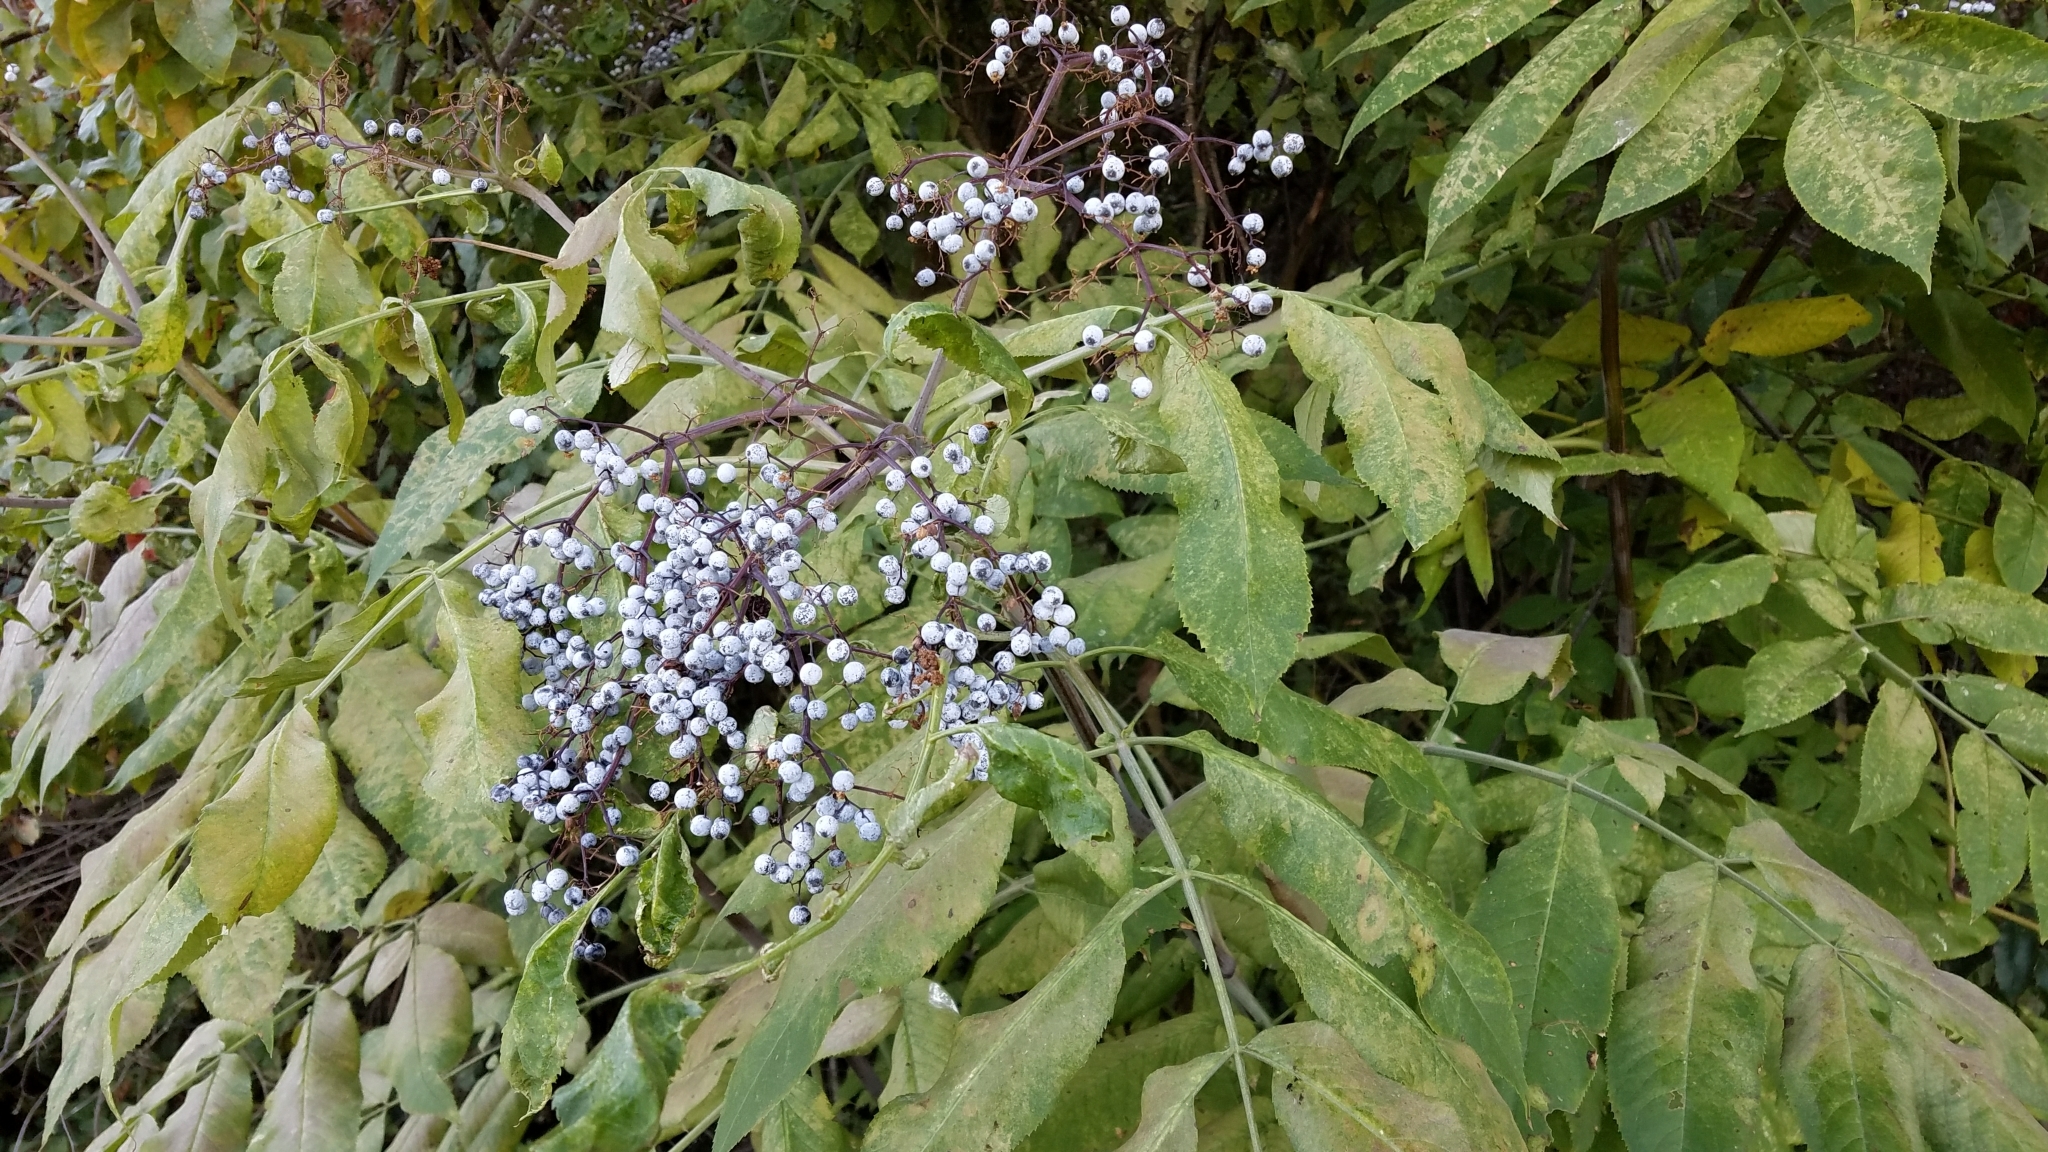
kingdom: Plantae
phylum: Tracheophyta
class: Magnoliopsida
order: Dipsacales
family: Viburnaceae
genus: Sambucus
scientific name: Sambucus cerulea
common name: Blue elder
